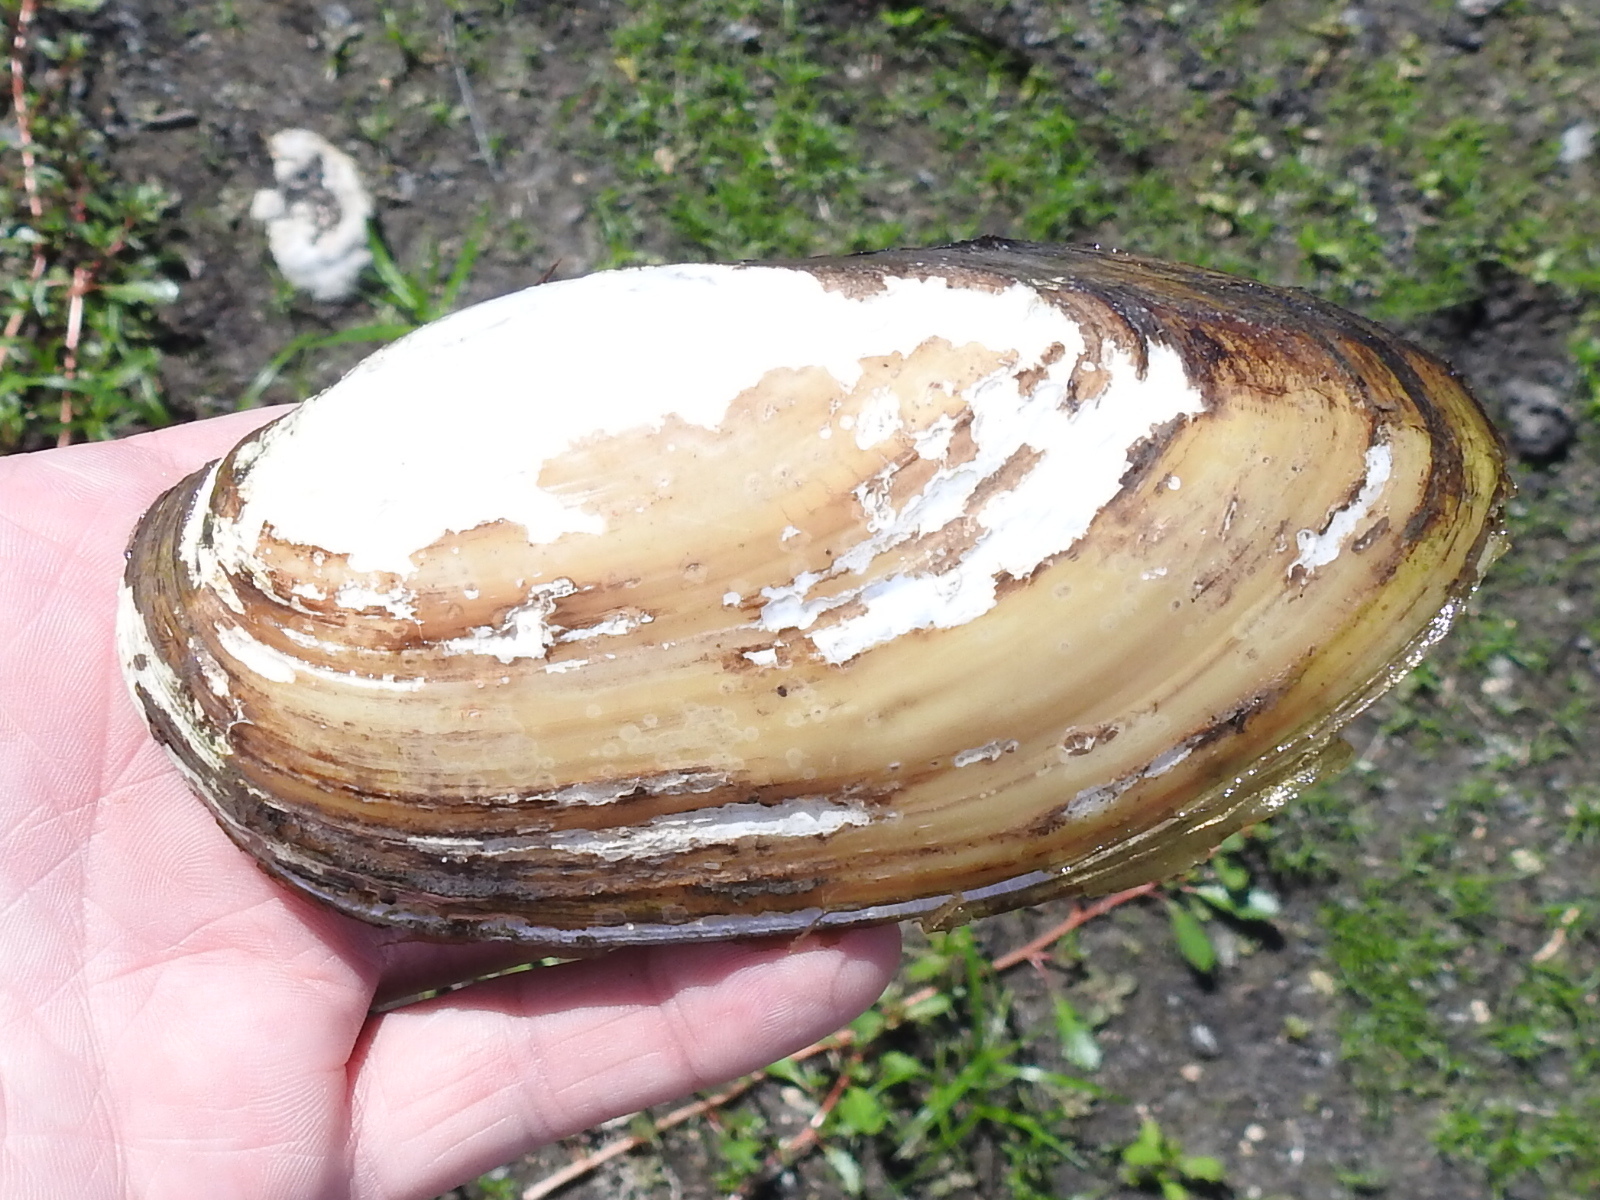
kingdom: Animalia
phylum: Mollusca
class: Bivalvia
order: Unionida
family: Unionidae
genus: Lampsilis
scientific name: Lampsilis teres
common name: Yellow sandshell
